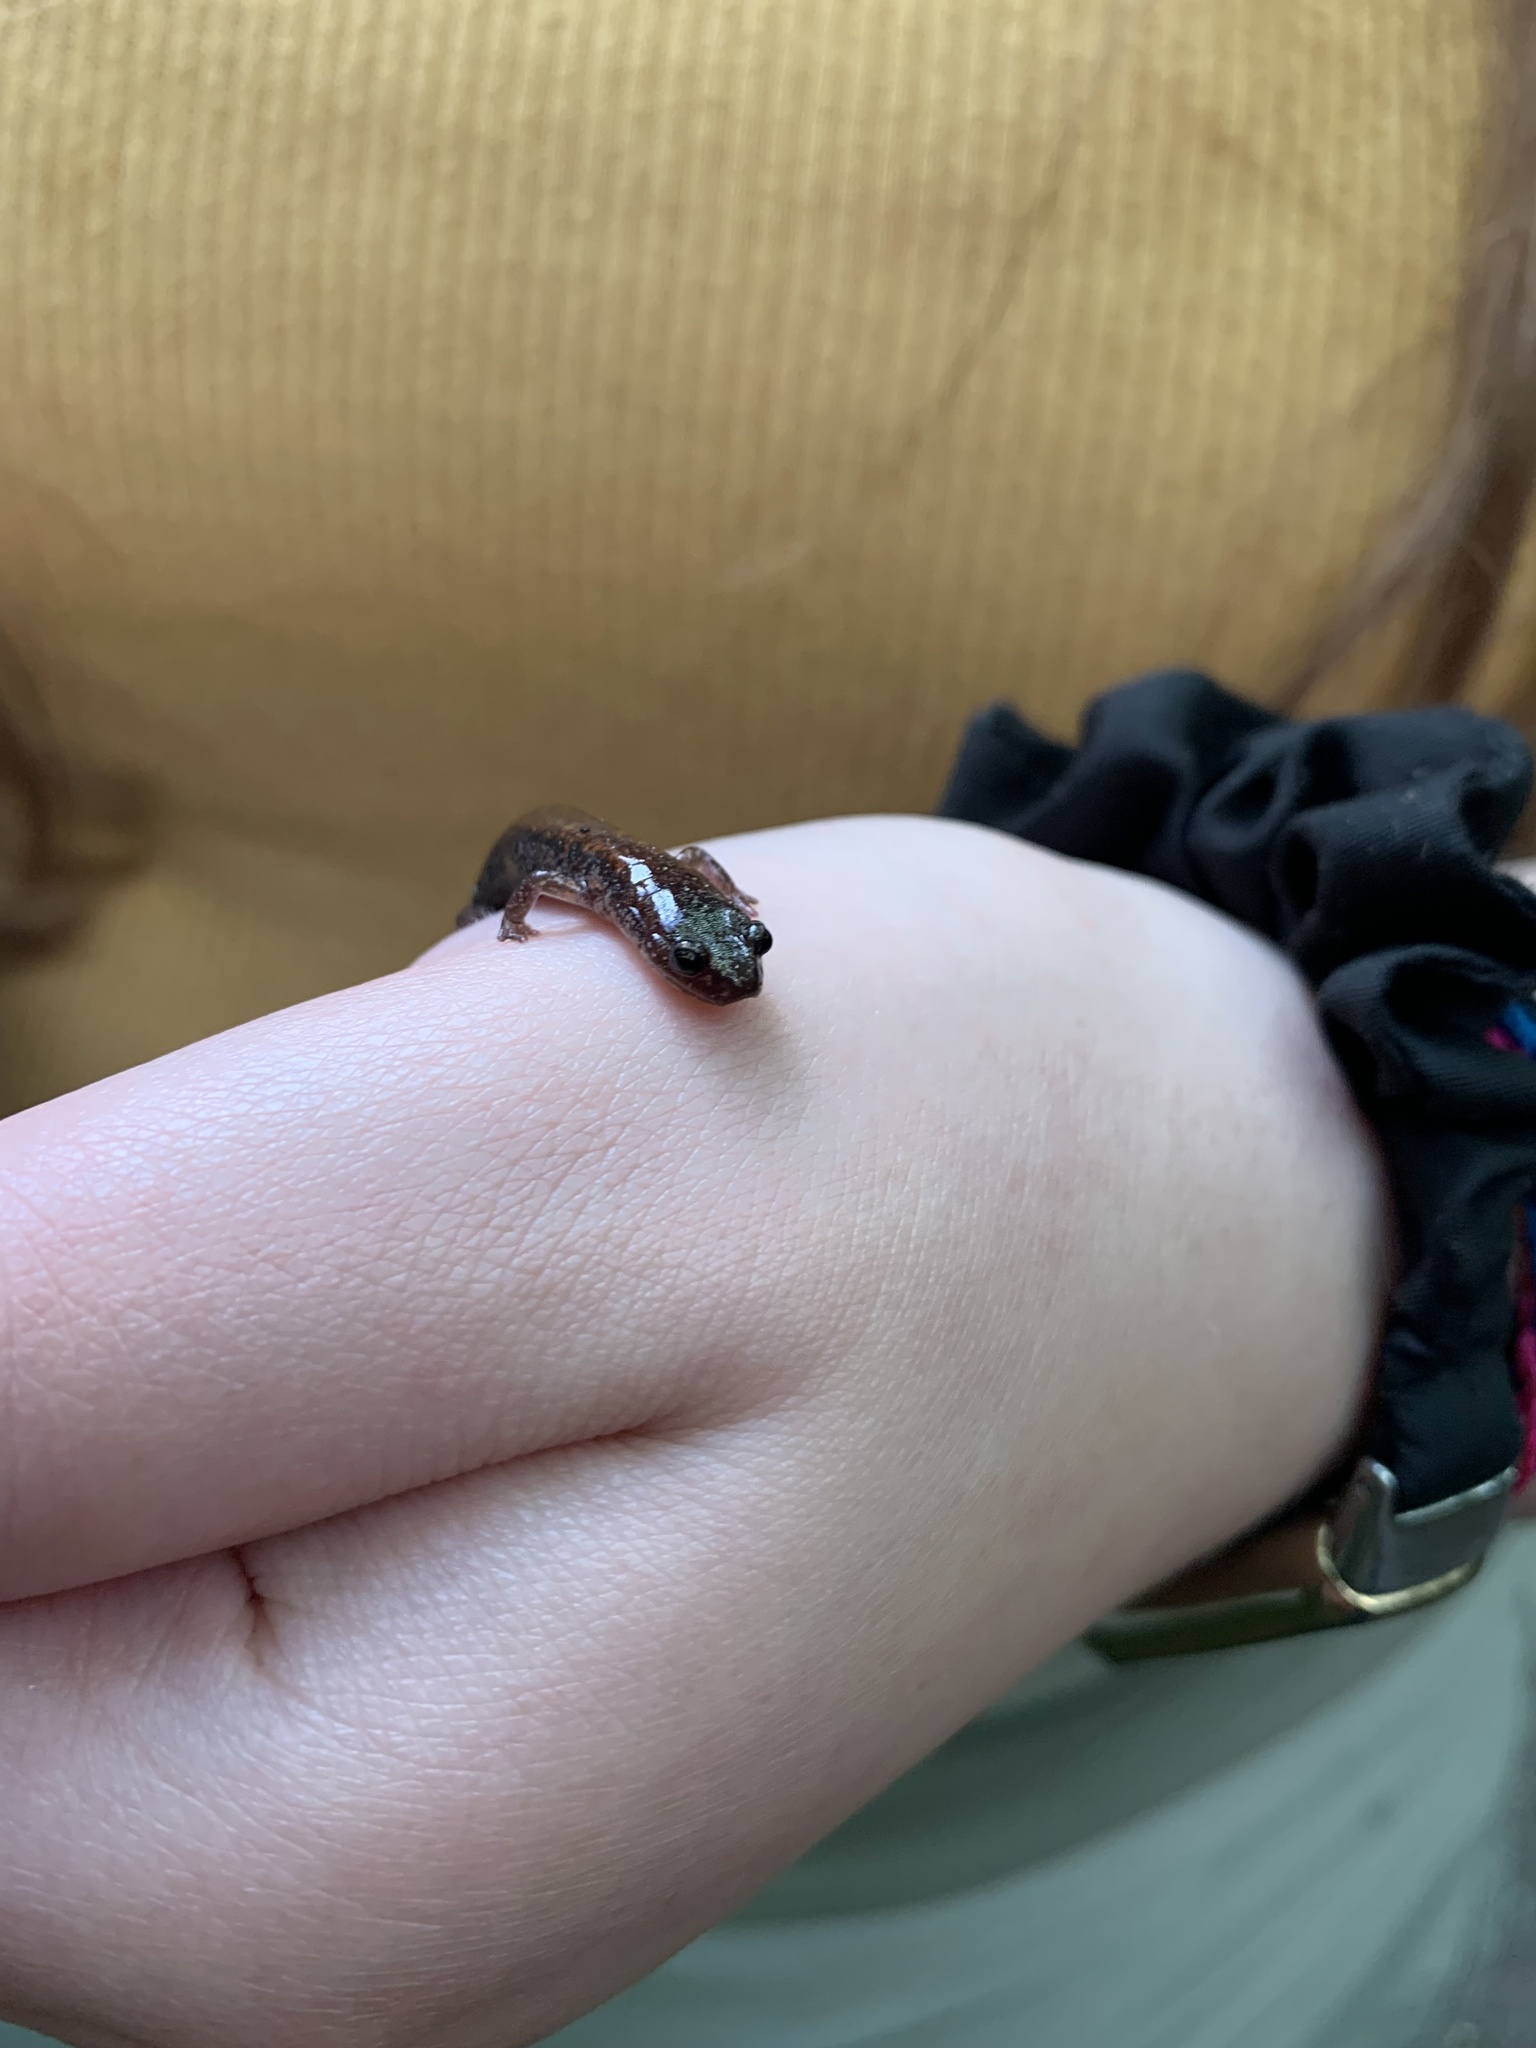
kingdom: Animalia
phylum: Chordata
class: Amphibia
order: Caudata
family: Plethodontidae
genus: Plethodon
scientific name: Plethodon cinereus
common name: Redback salamander
